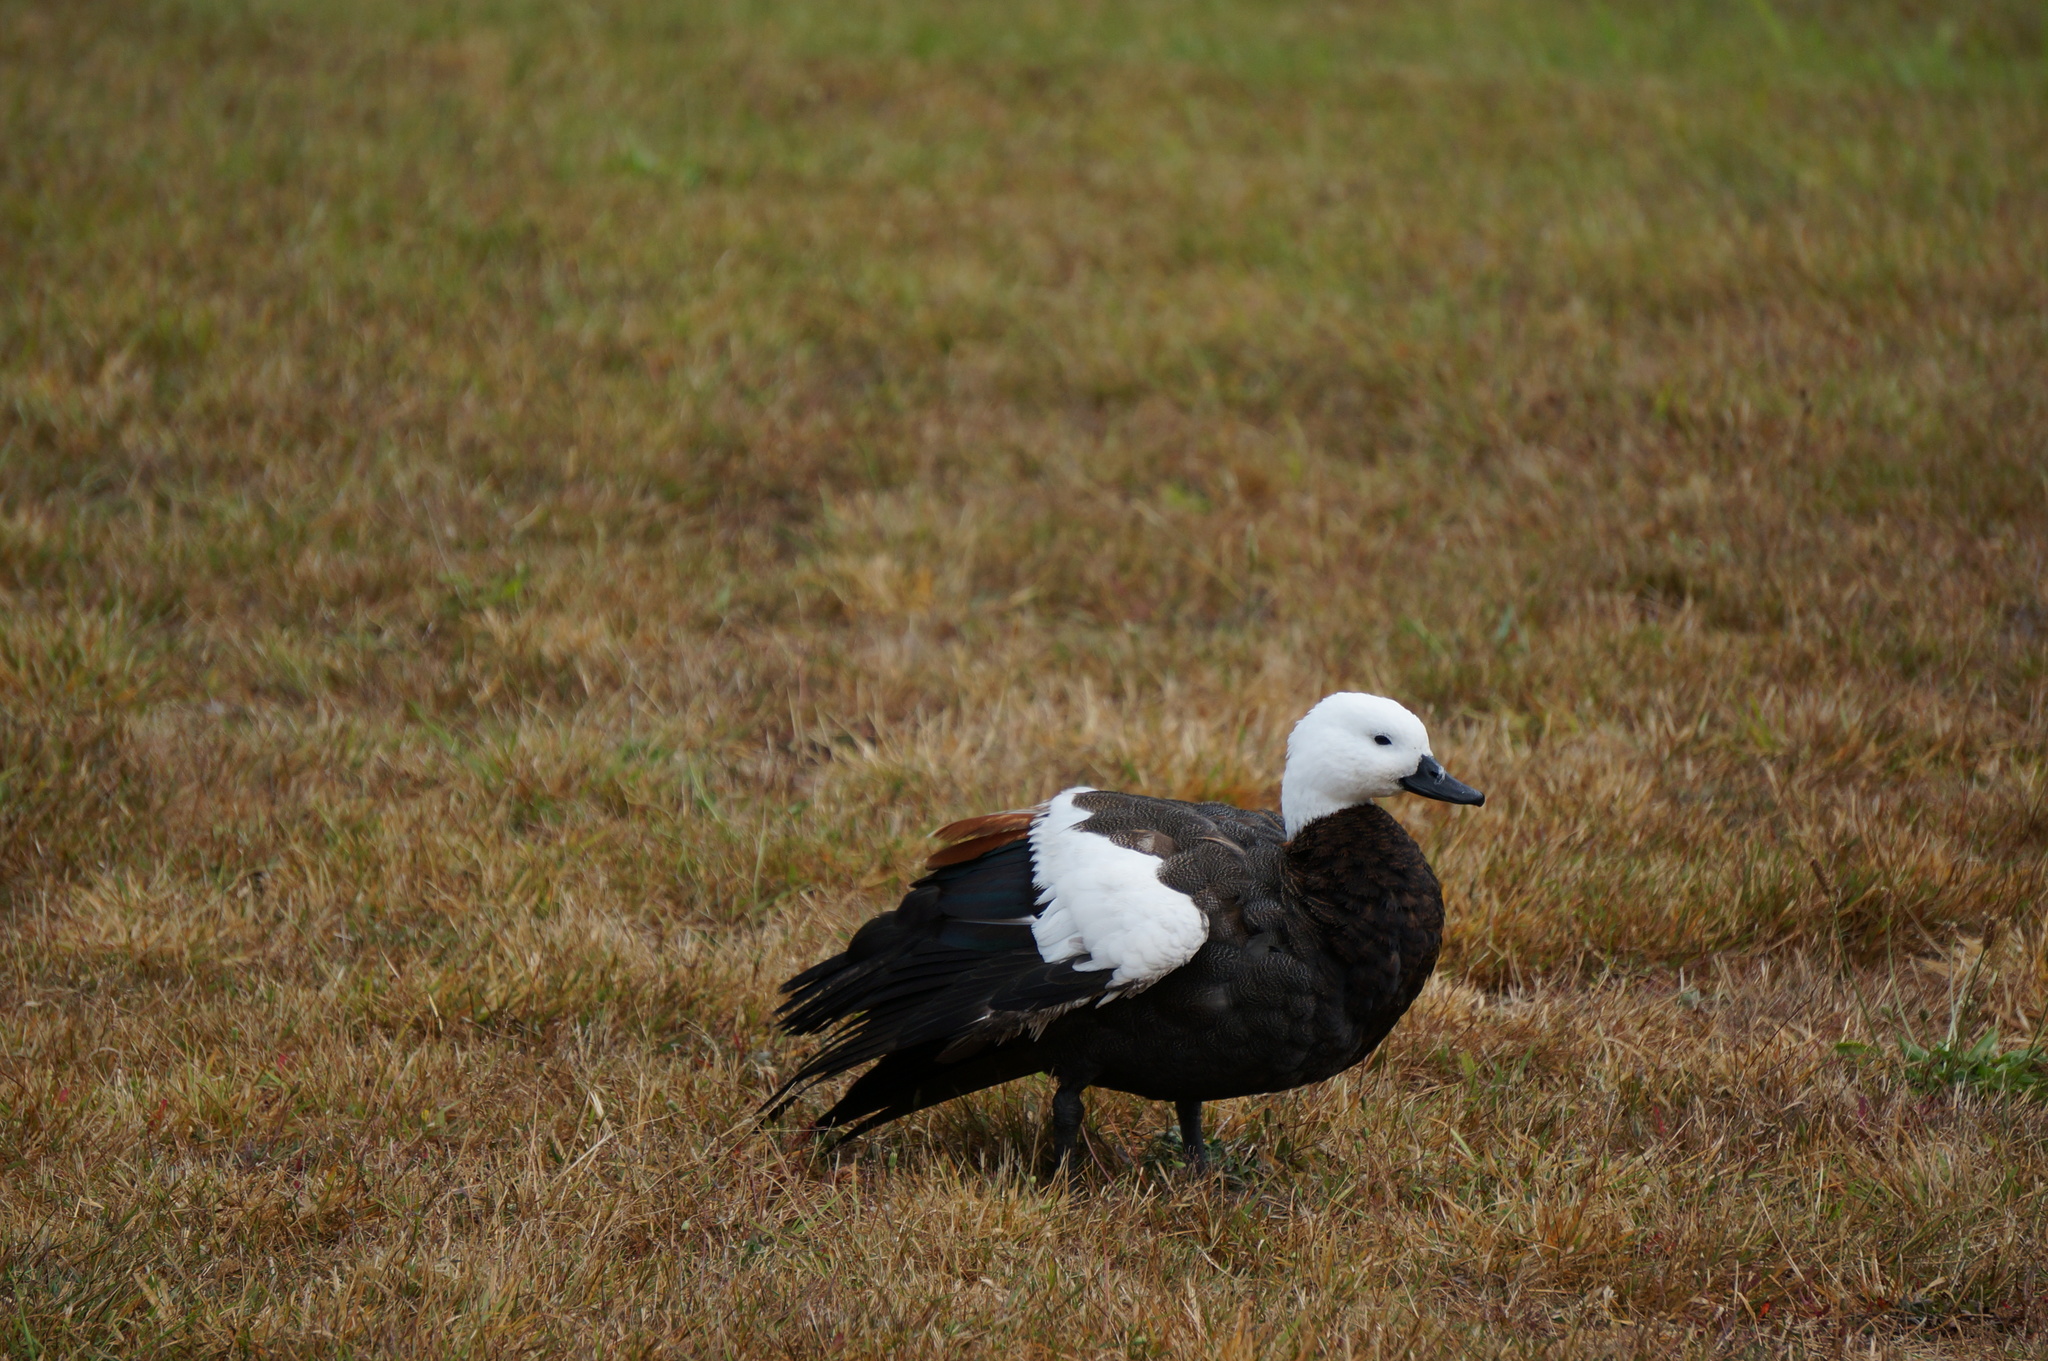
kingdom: Animalia
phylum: Chordata
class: Aves
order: Anseriformes
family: Anatidae
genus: Tadorna
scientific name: Tadorna variegata
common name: Paradise shelduck
